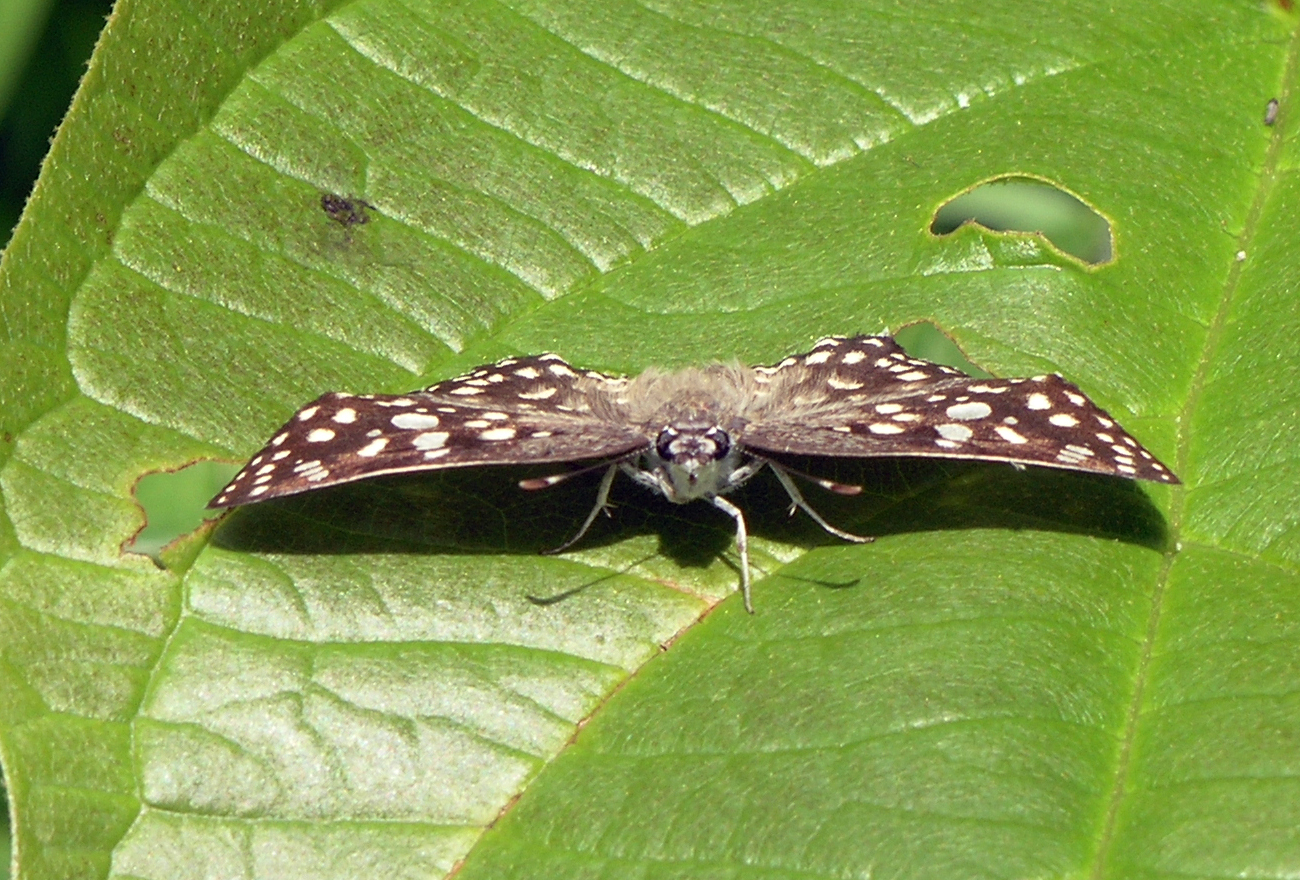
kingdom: Animalia
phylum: Arthropoda
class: Insecta
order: Lepidoptera
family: Hesperiidae
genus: Caprona
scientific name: Caprona agama
